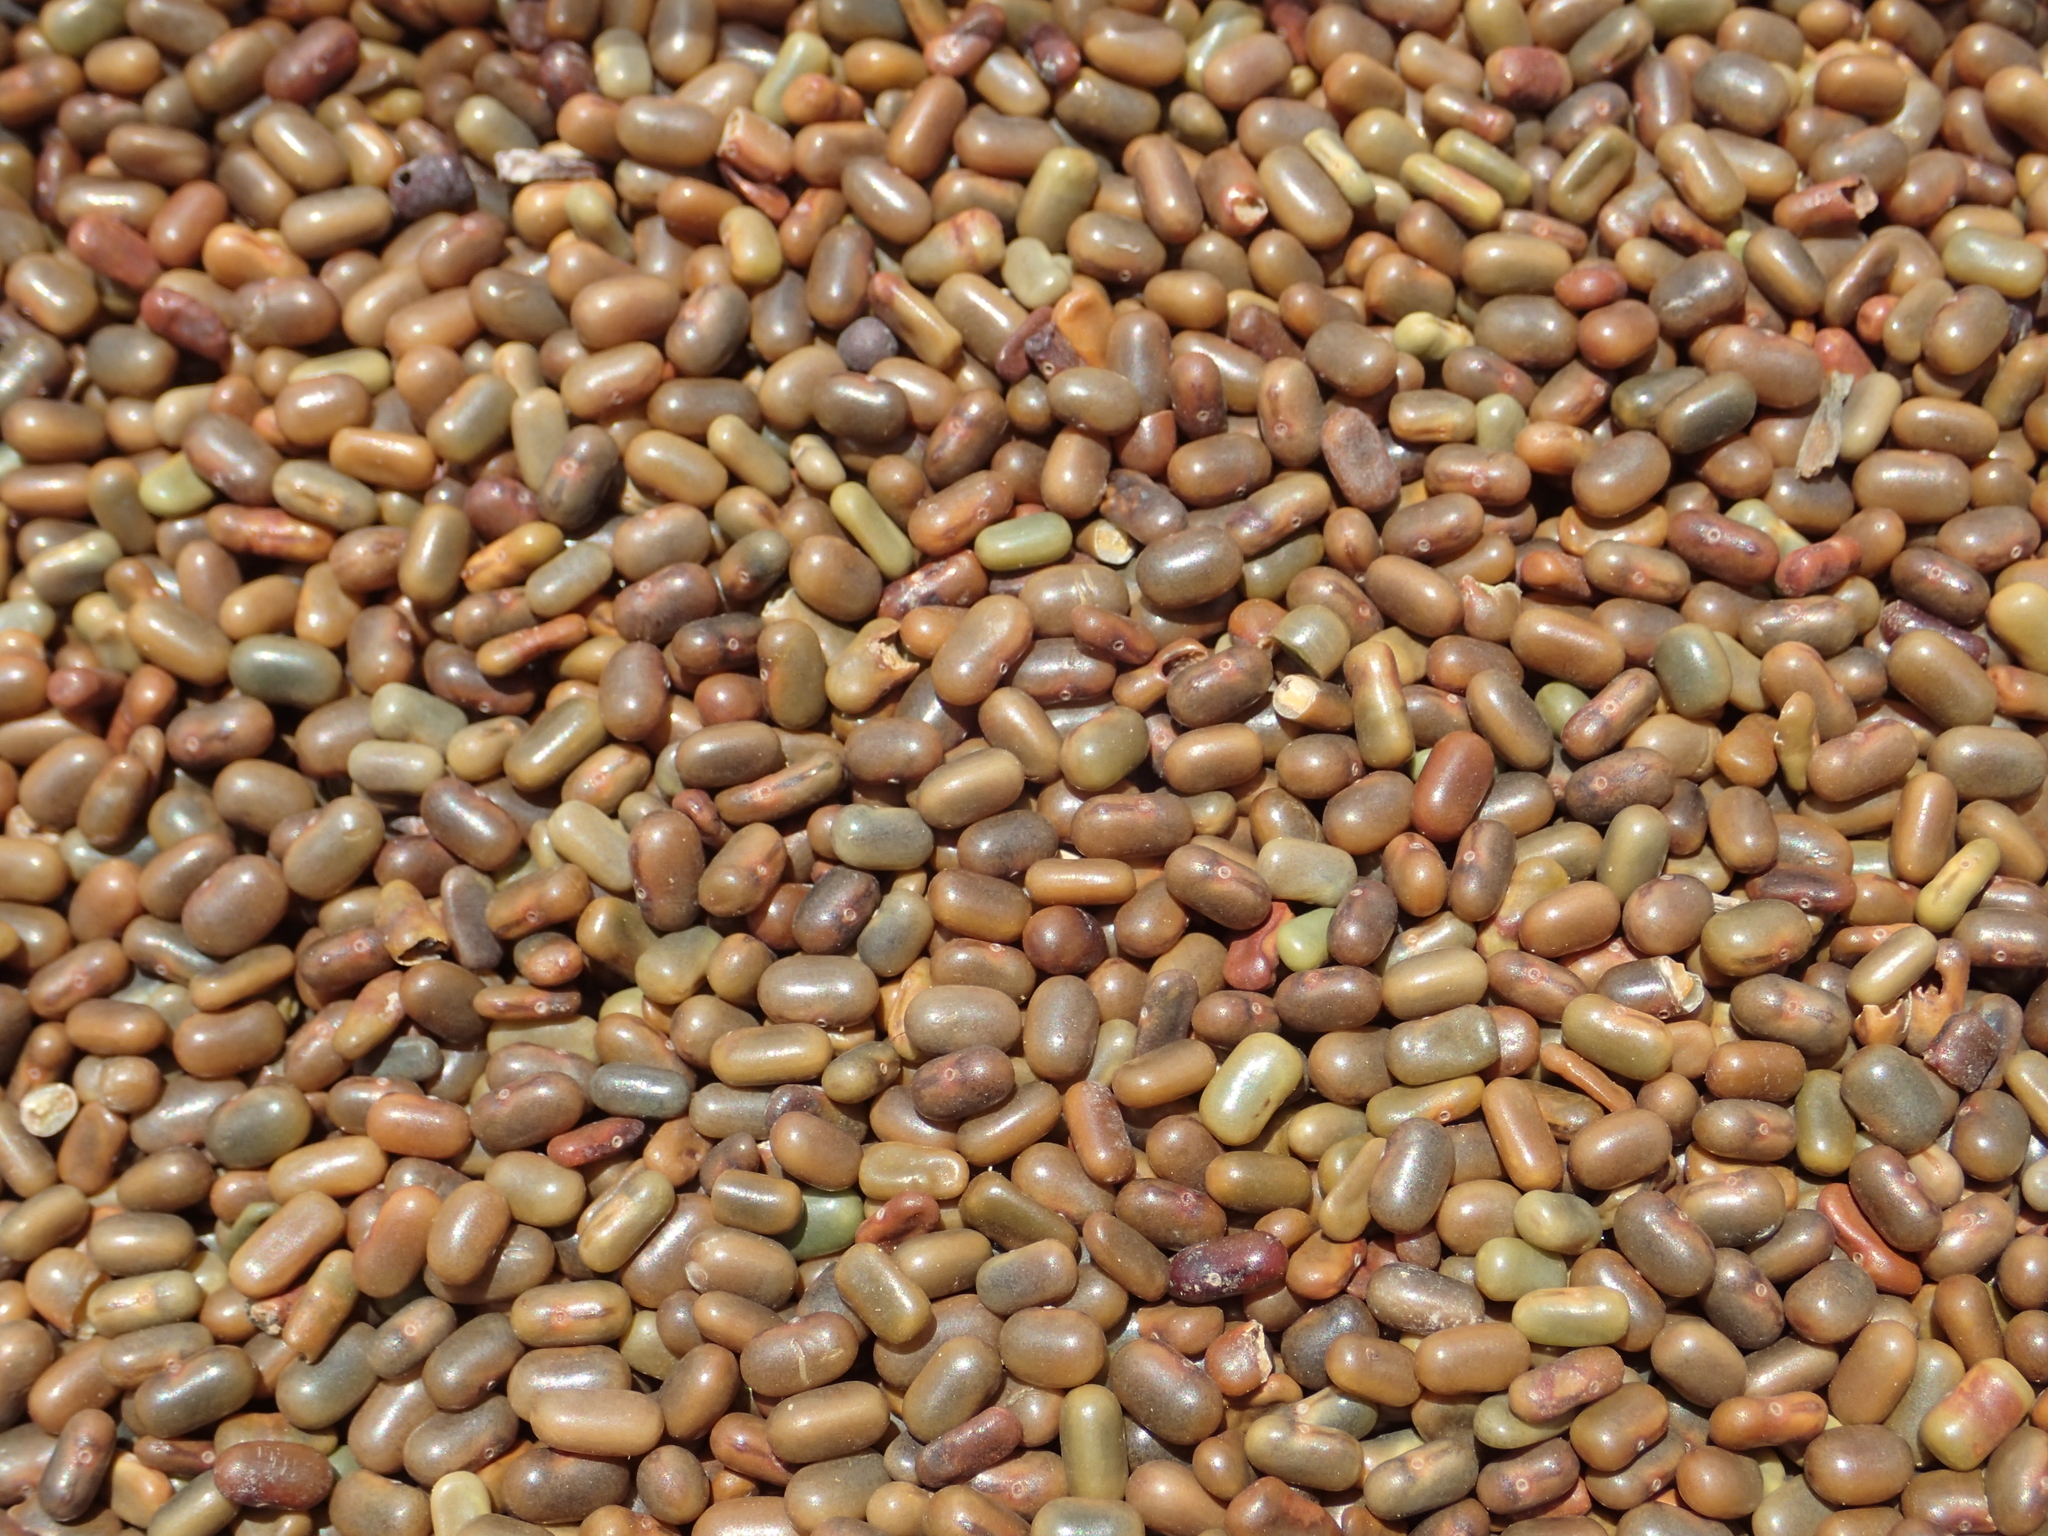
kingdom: Plantae
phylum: Tracheophyta
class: Magnoliopsida
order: Fabales
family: Fabaceae
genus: Sesbania
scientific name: Sesbania cannabina
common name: Canicha
